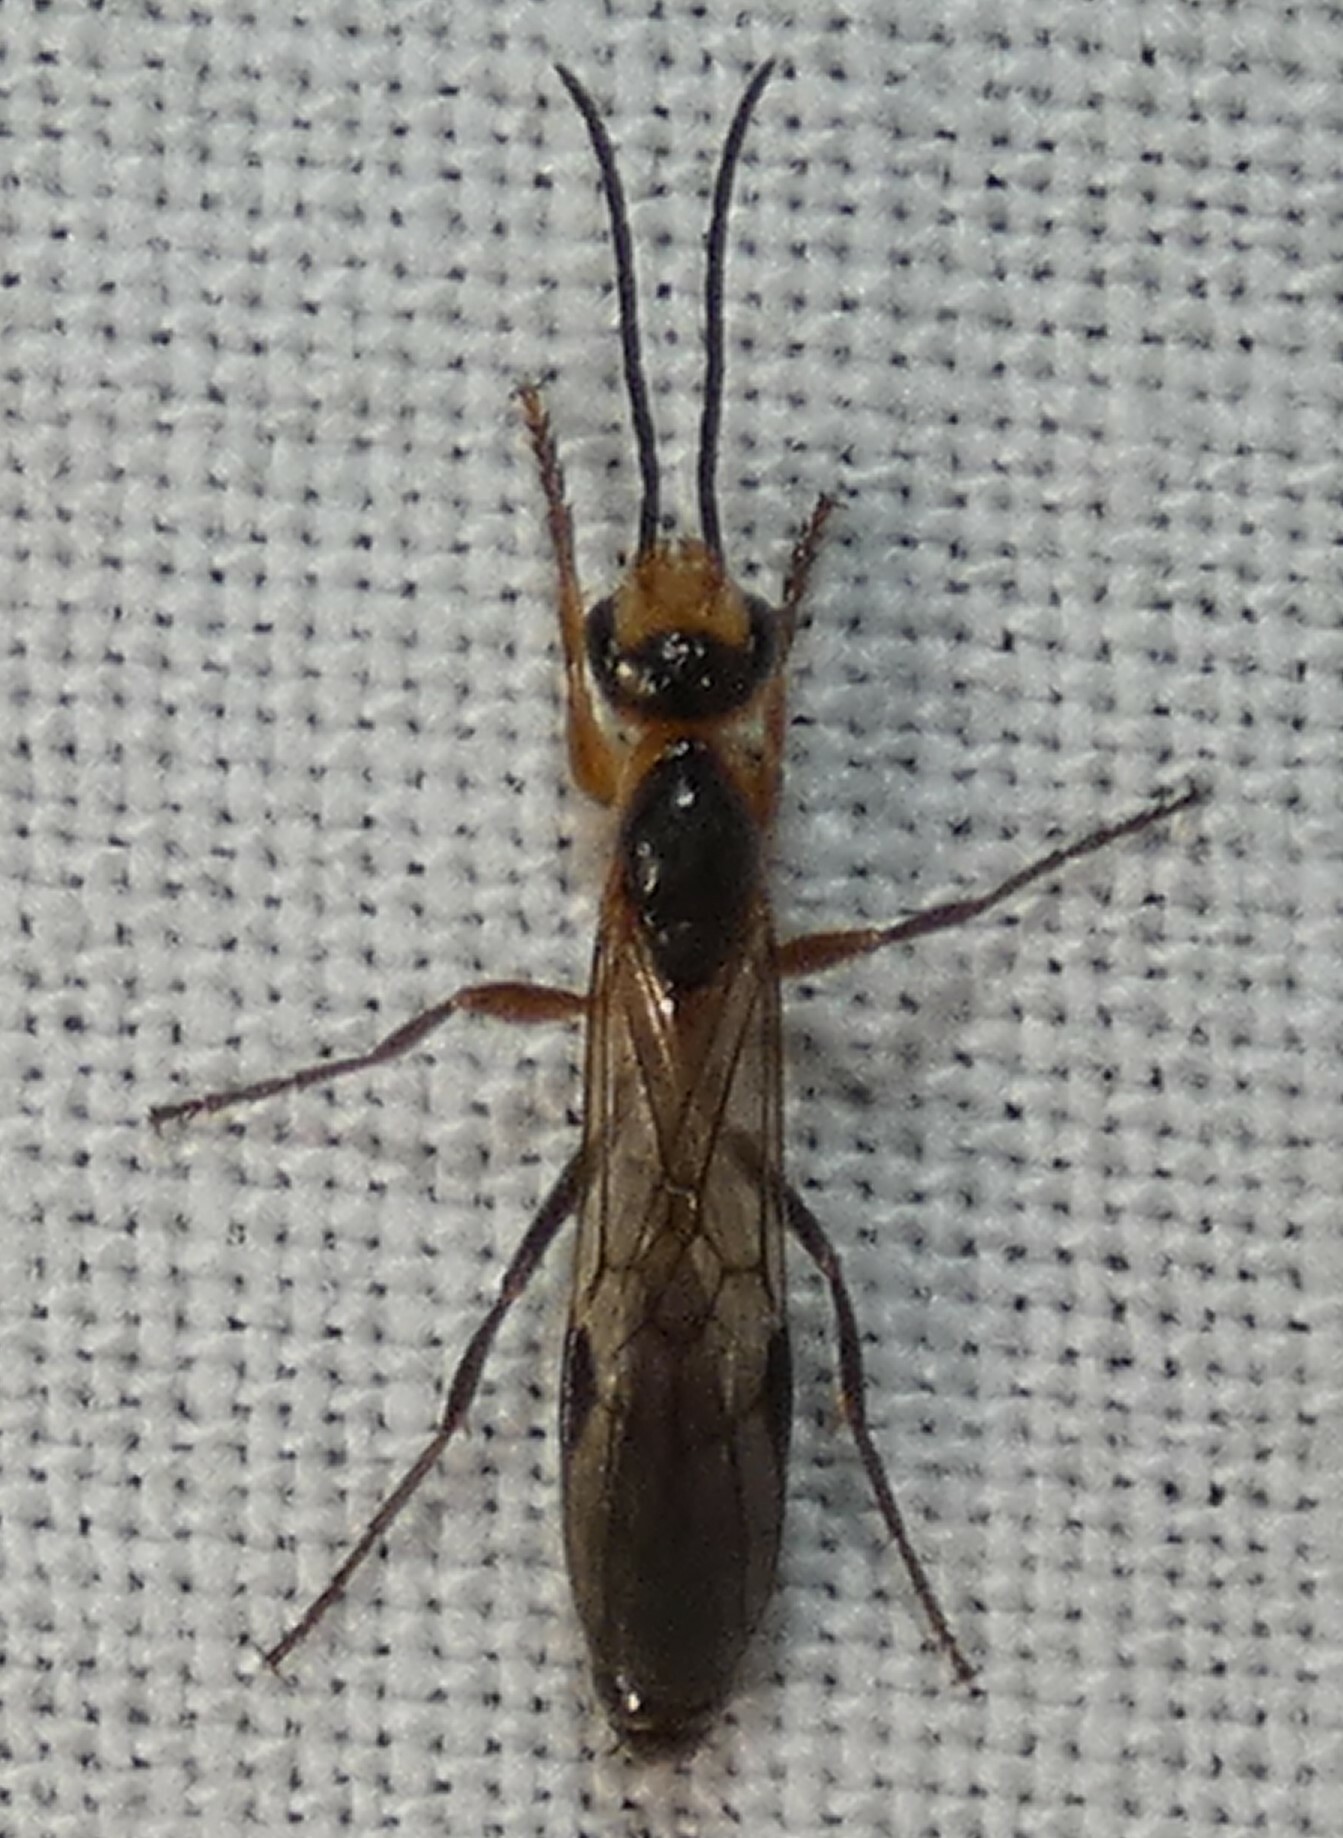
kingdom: Animalia
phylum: Arthropoda
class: Insecta
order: Hymenoptera
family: Formicidae
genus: Pseudomyrmex
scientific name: Pseudomyrmex gracilis
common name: Graceful twig ant
